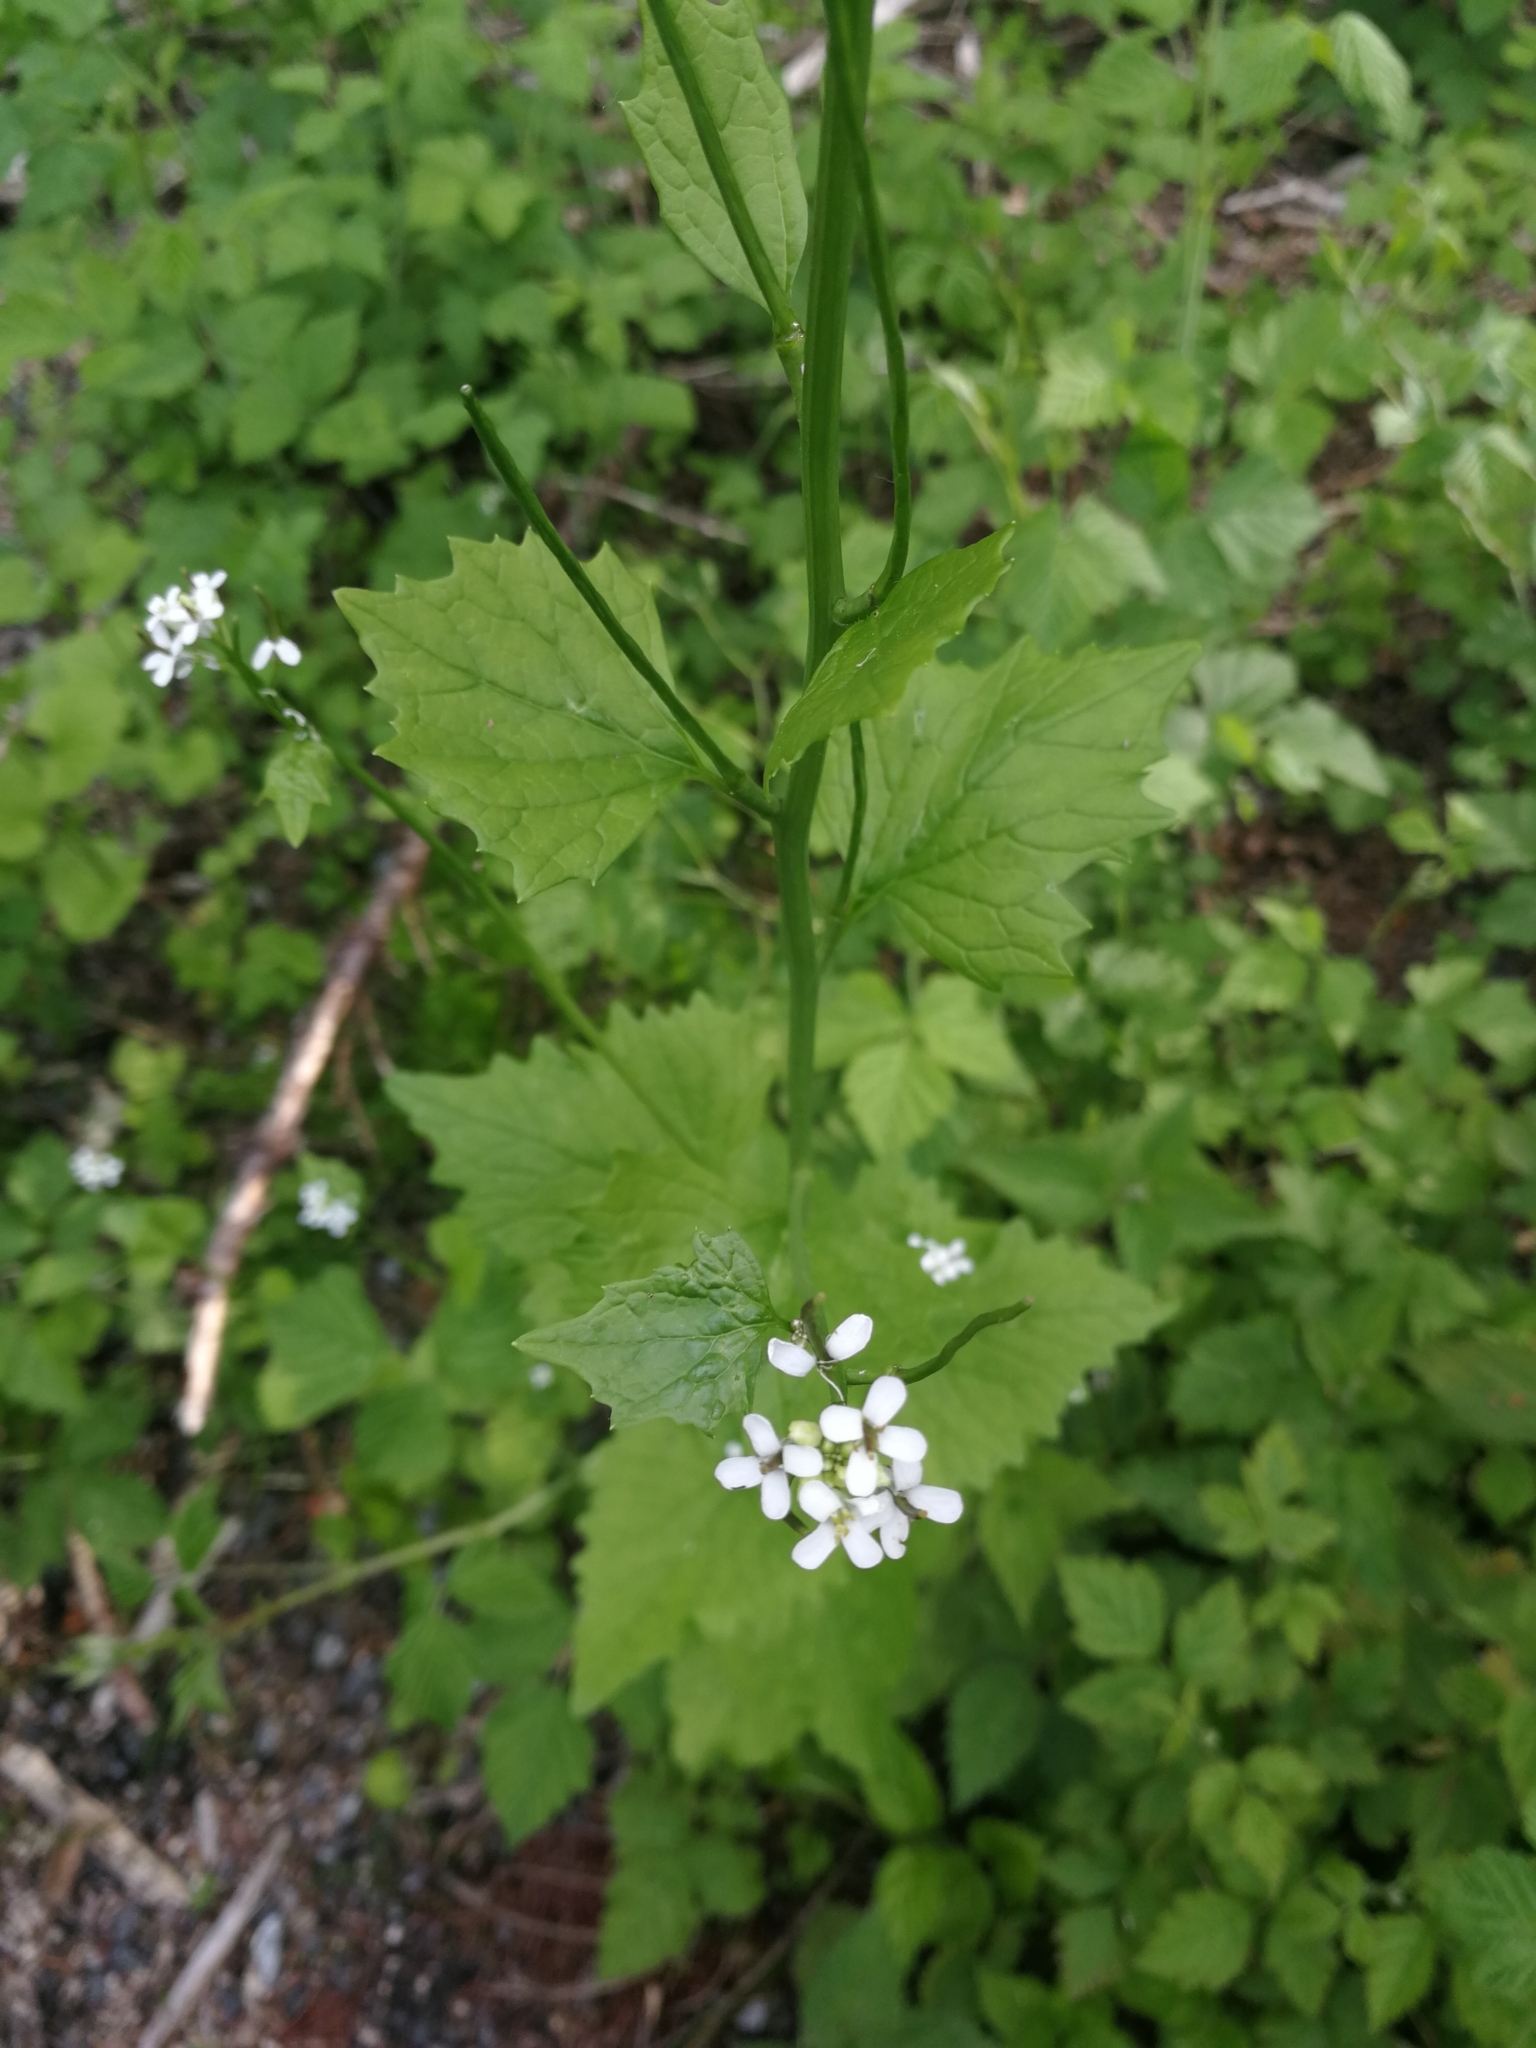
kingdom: Plantae
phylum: Tracheophyta
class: Magnoliopsida
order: Brassicales
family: Brassicaceae
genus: Alliaria
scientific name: Alliaria petiolata
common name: Garlic mustard
